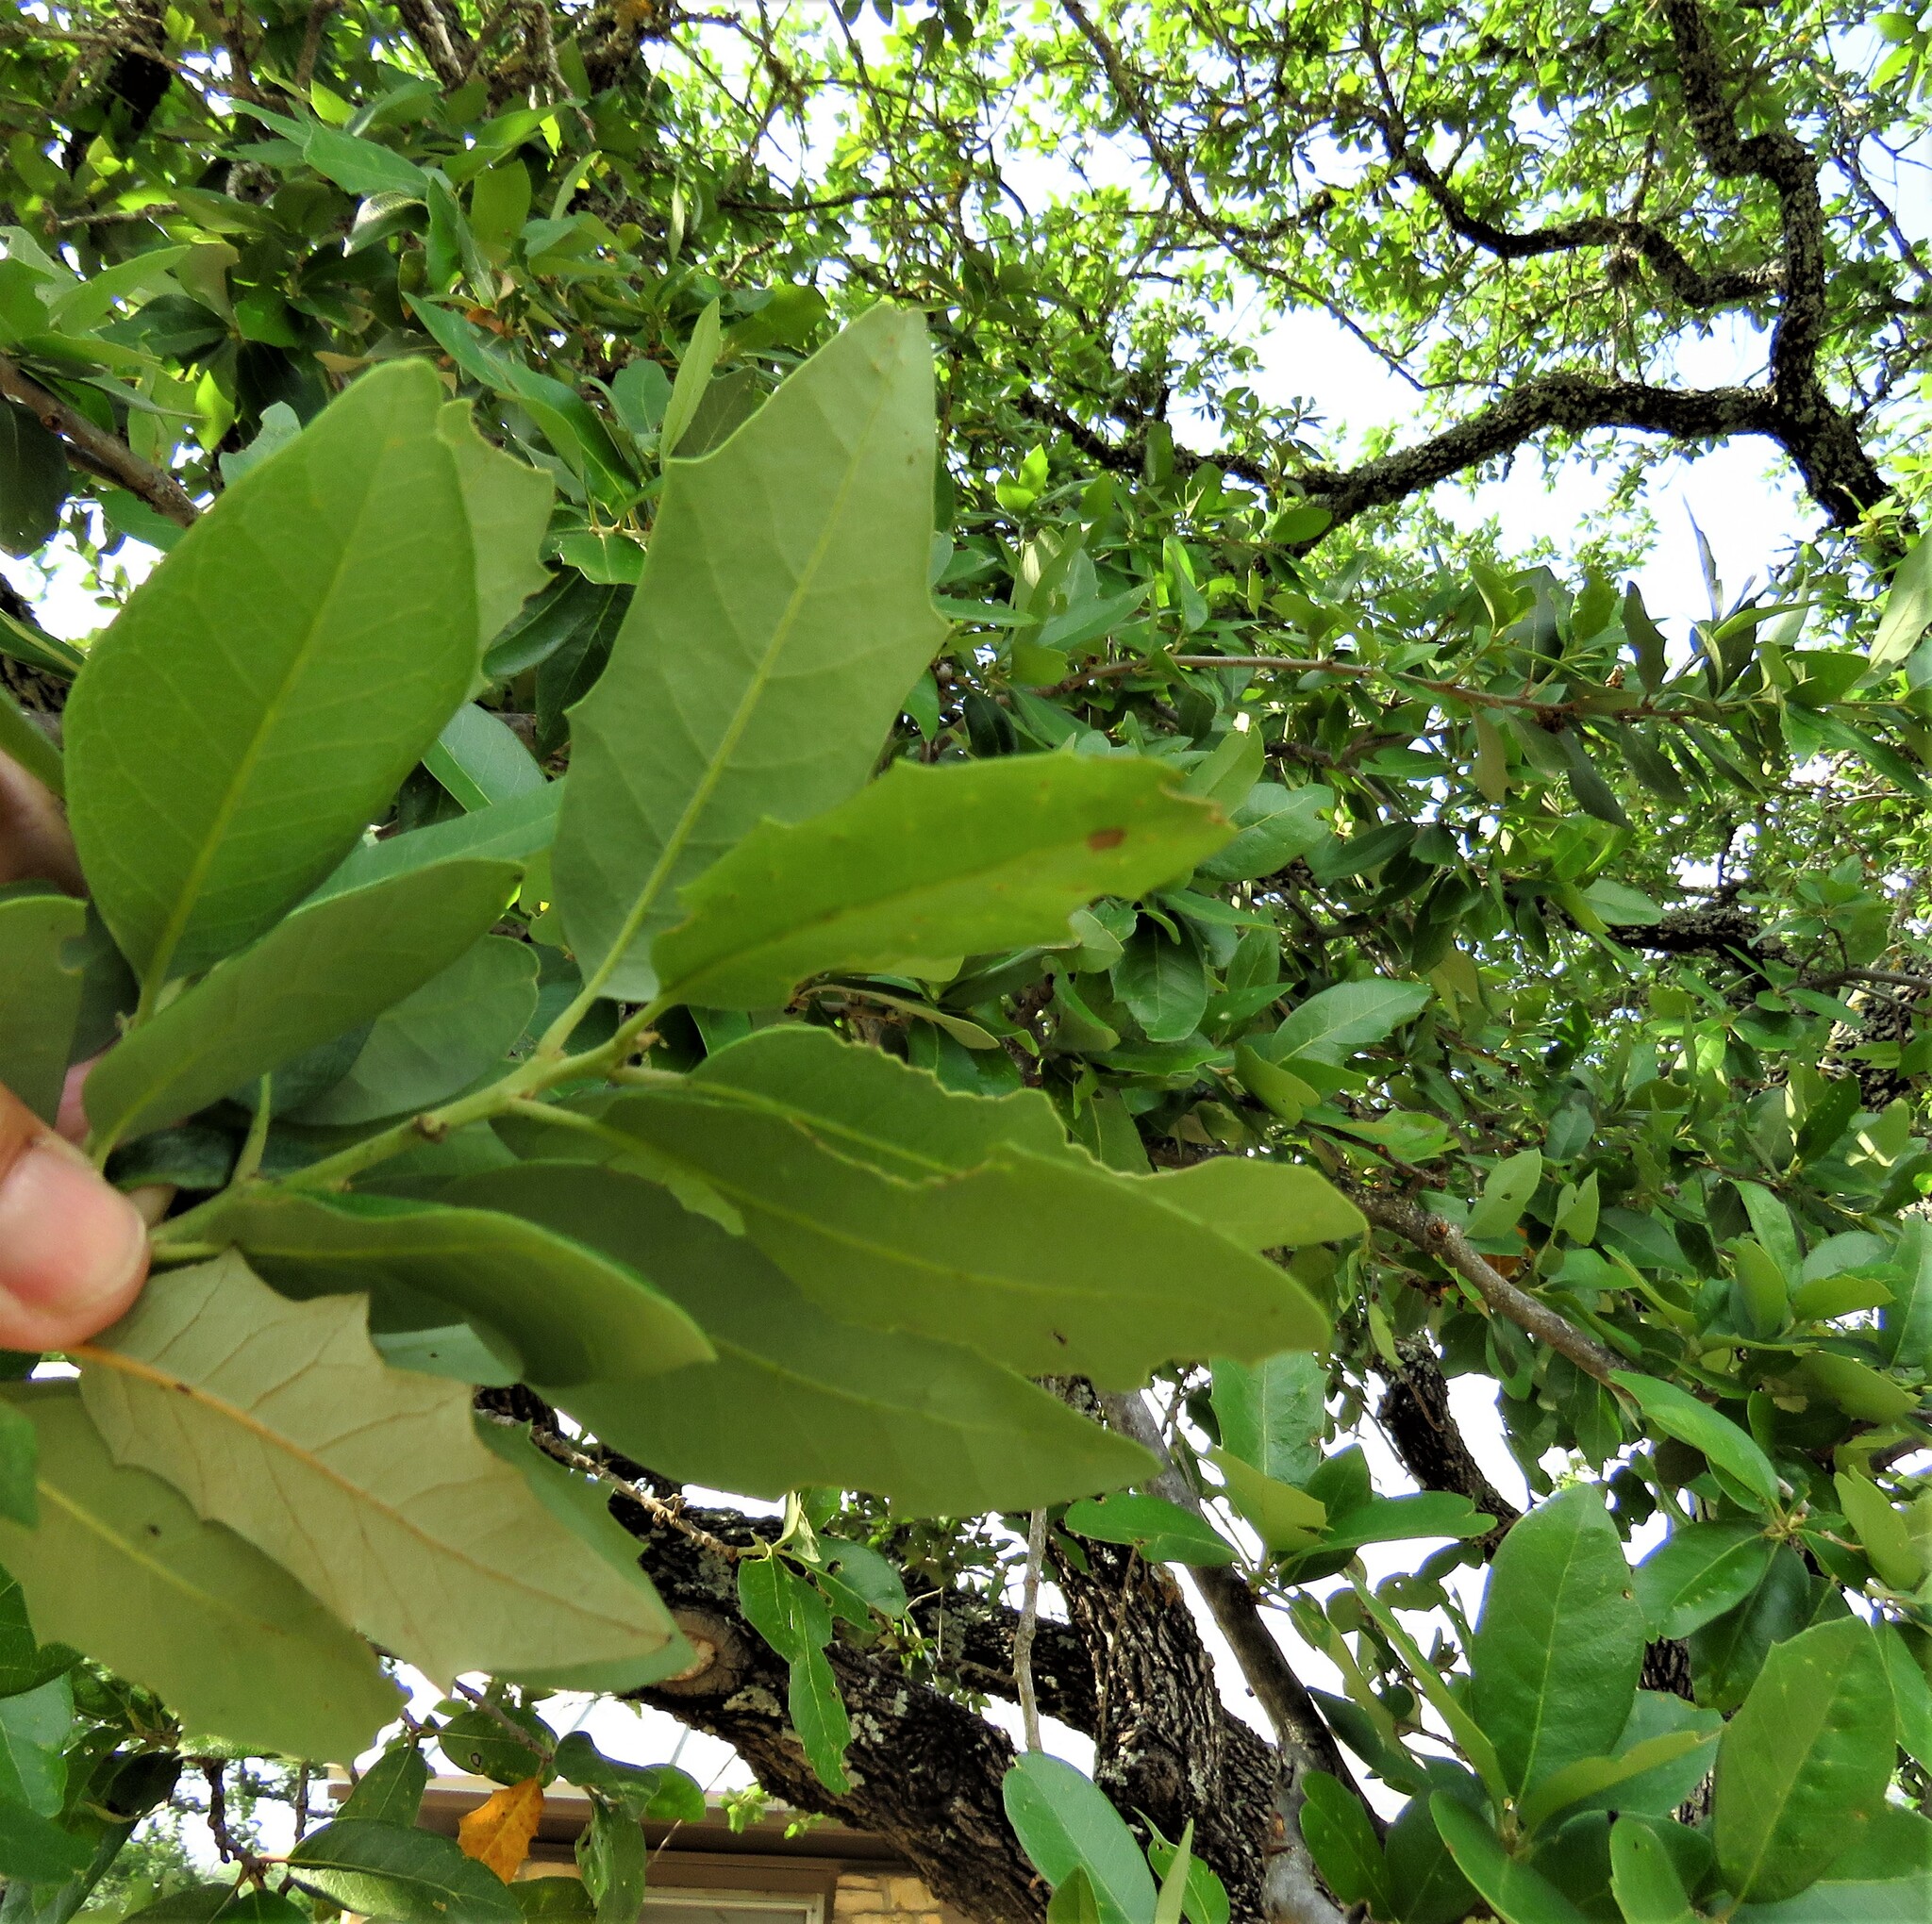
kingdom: Plantae
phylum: Tracheophyta
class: Magnoliopsida
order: Fagales
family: Fagaceae
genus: Quercus
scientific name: Quercus fusiformis
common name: Texas live oak
